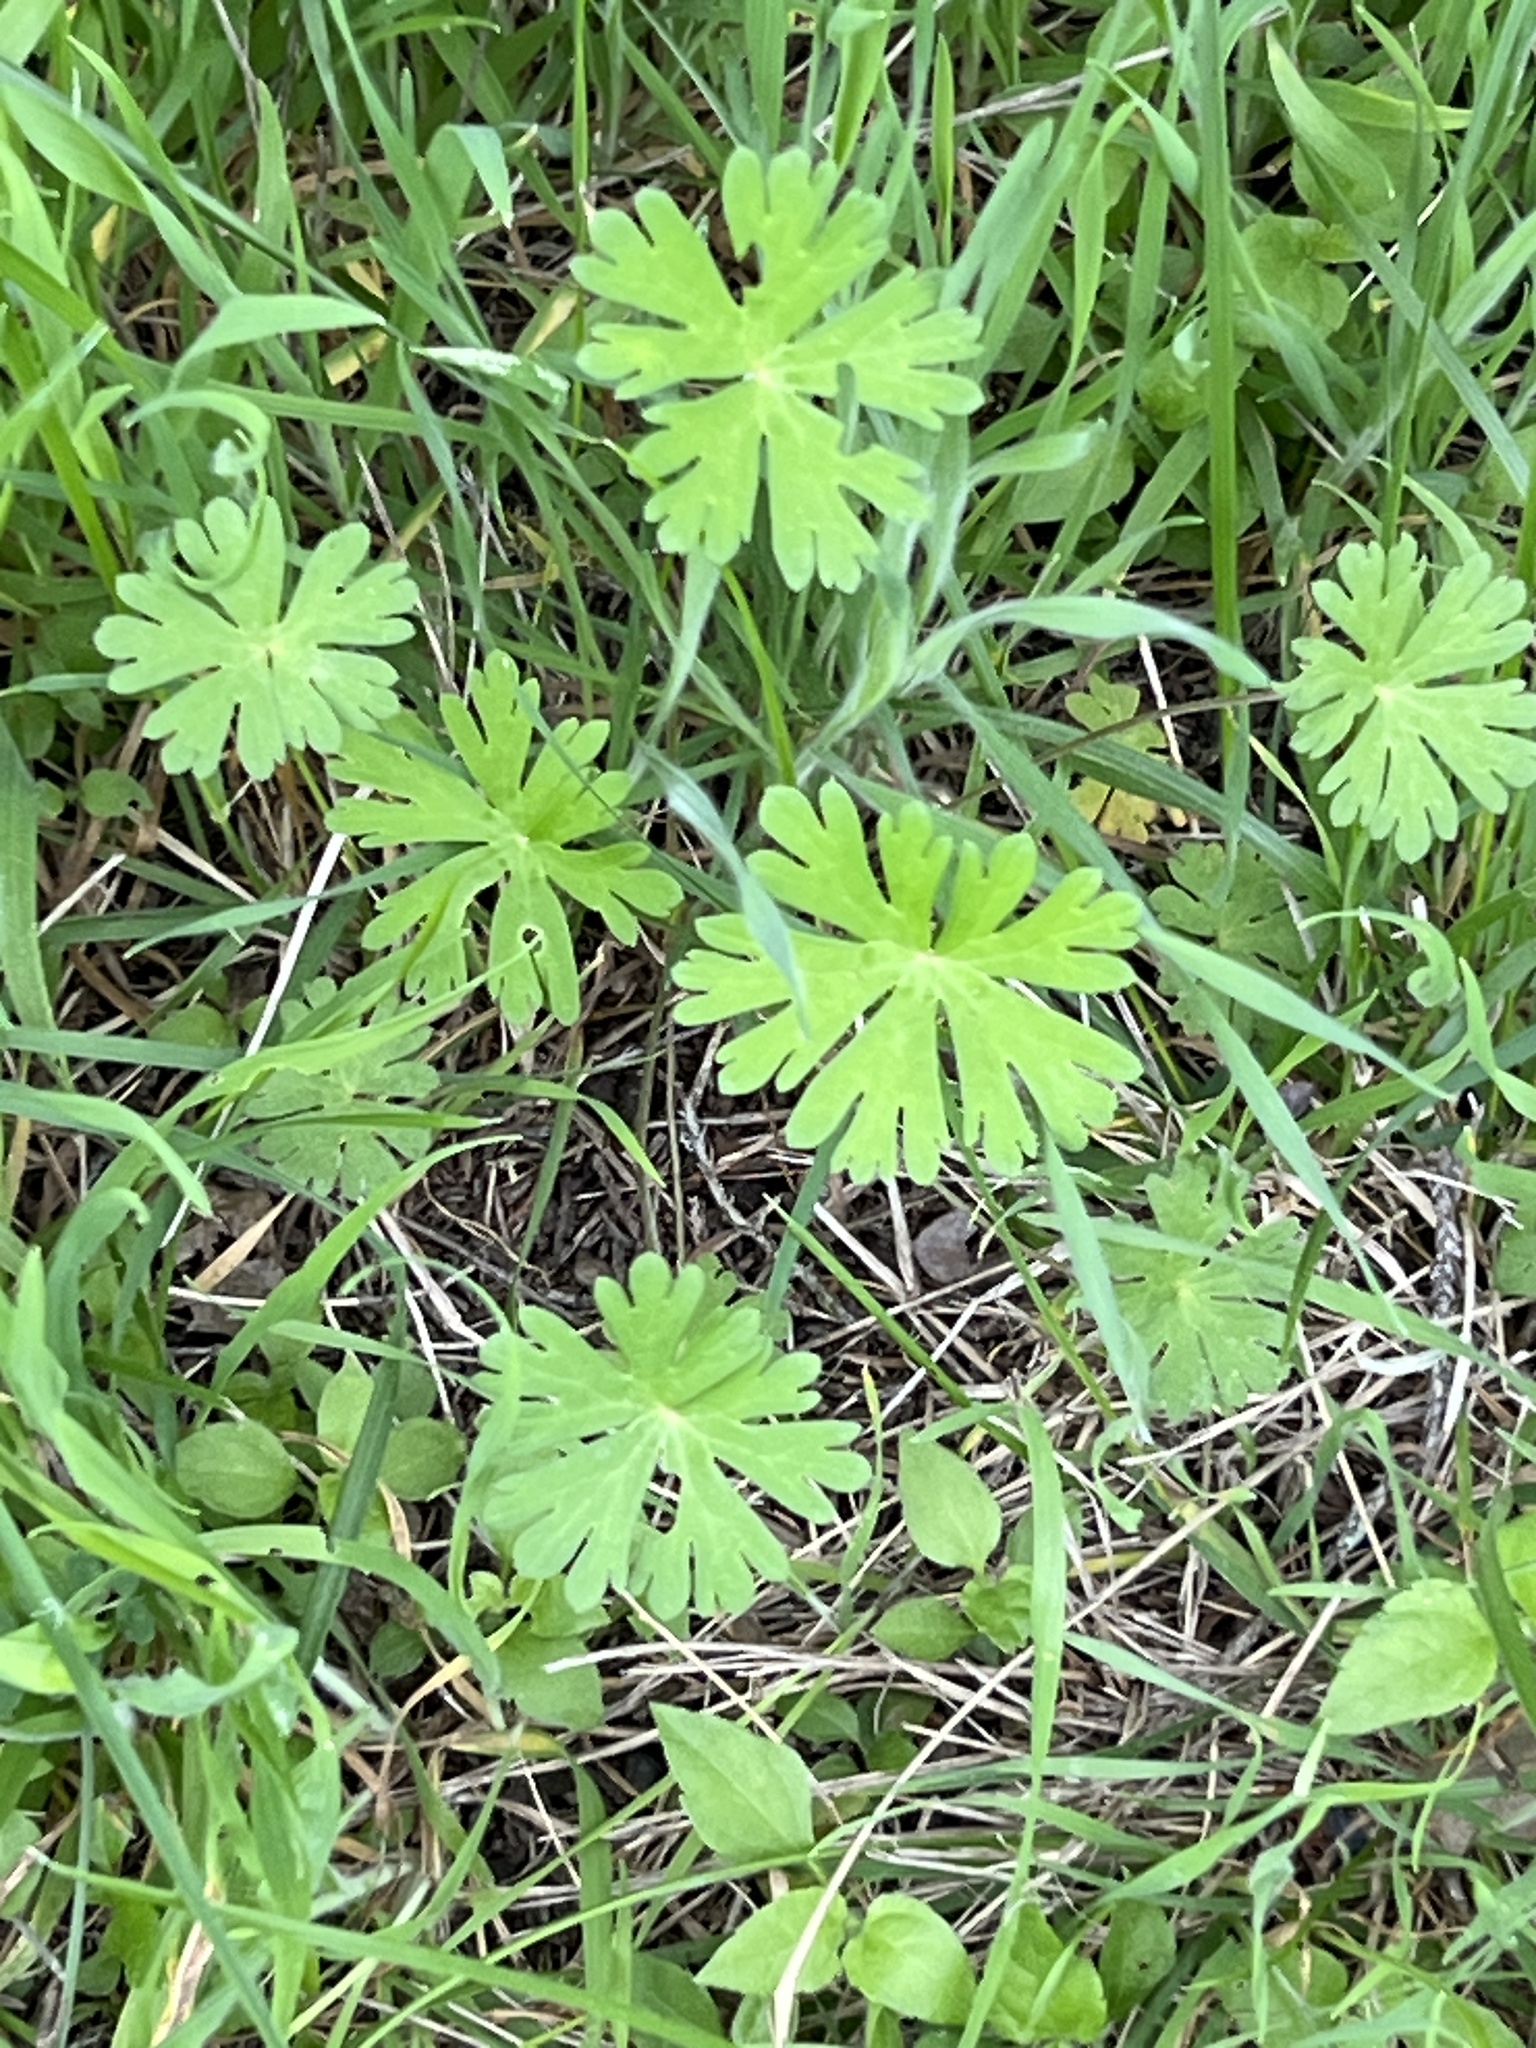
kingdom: Plantae
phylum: Tracheophyta
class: Magnoliopsida
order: Geraniales
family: Geraniaceae
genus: Geranium
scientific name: Geranium carolinianum
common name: Carolina crane's-bill
